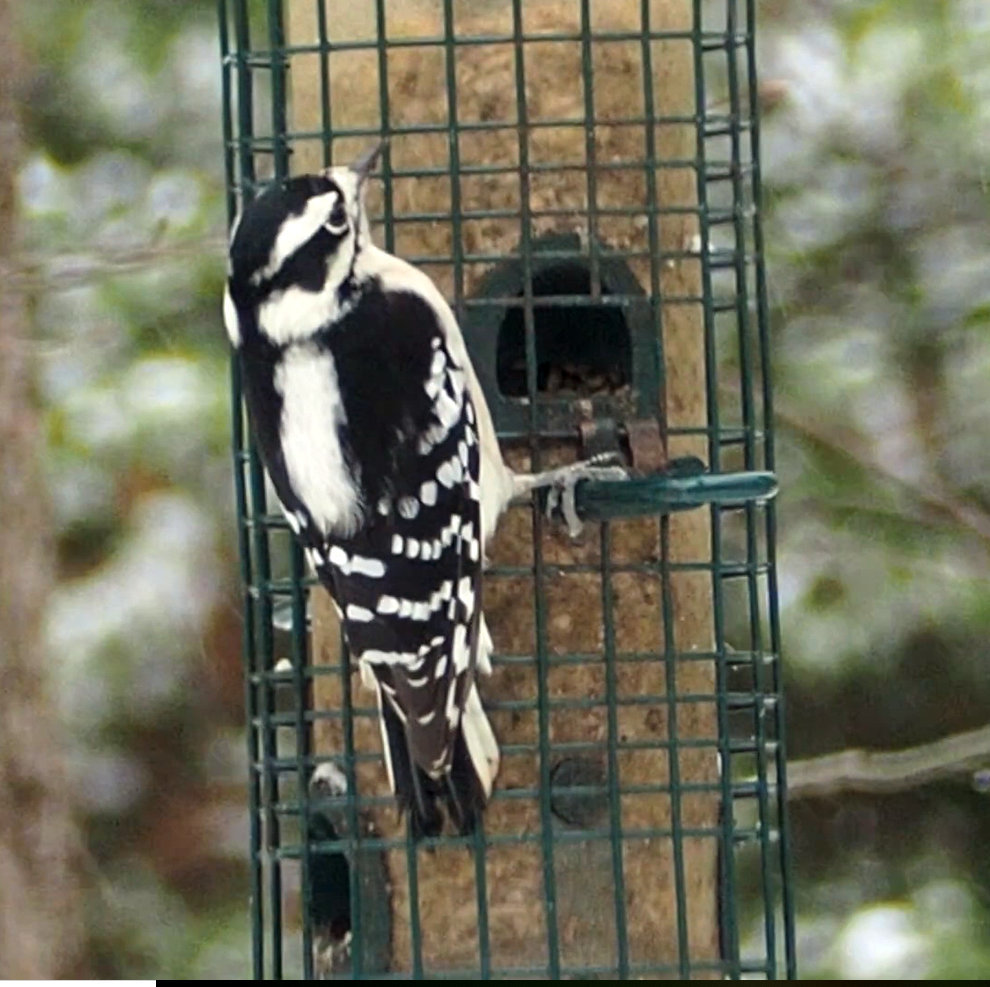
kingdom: Animalia
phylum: Chordata
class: Aves
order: Piciformes
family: Picidae
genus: Dryobates
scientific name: Dryobates pubescens
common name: Downy woodpecker
